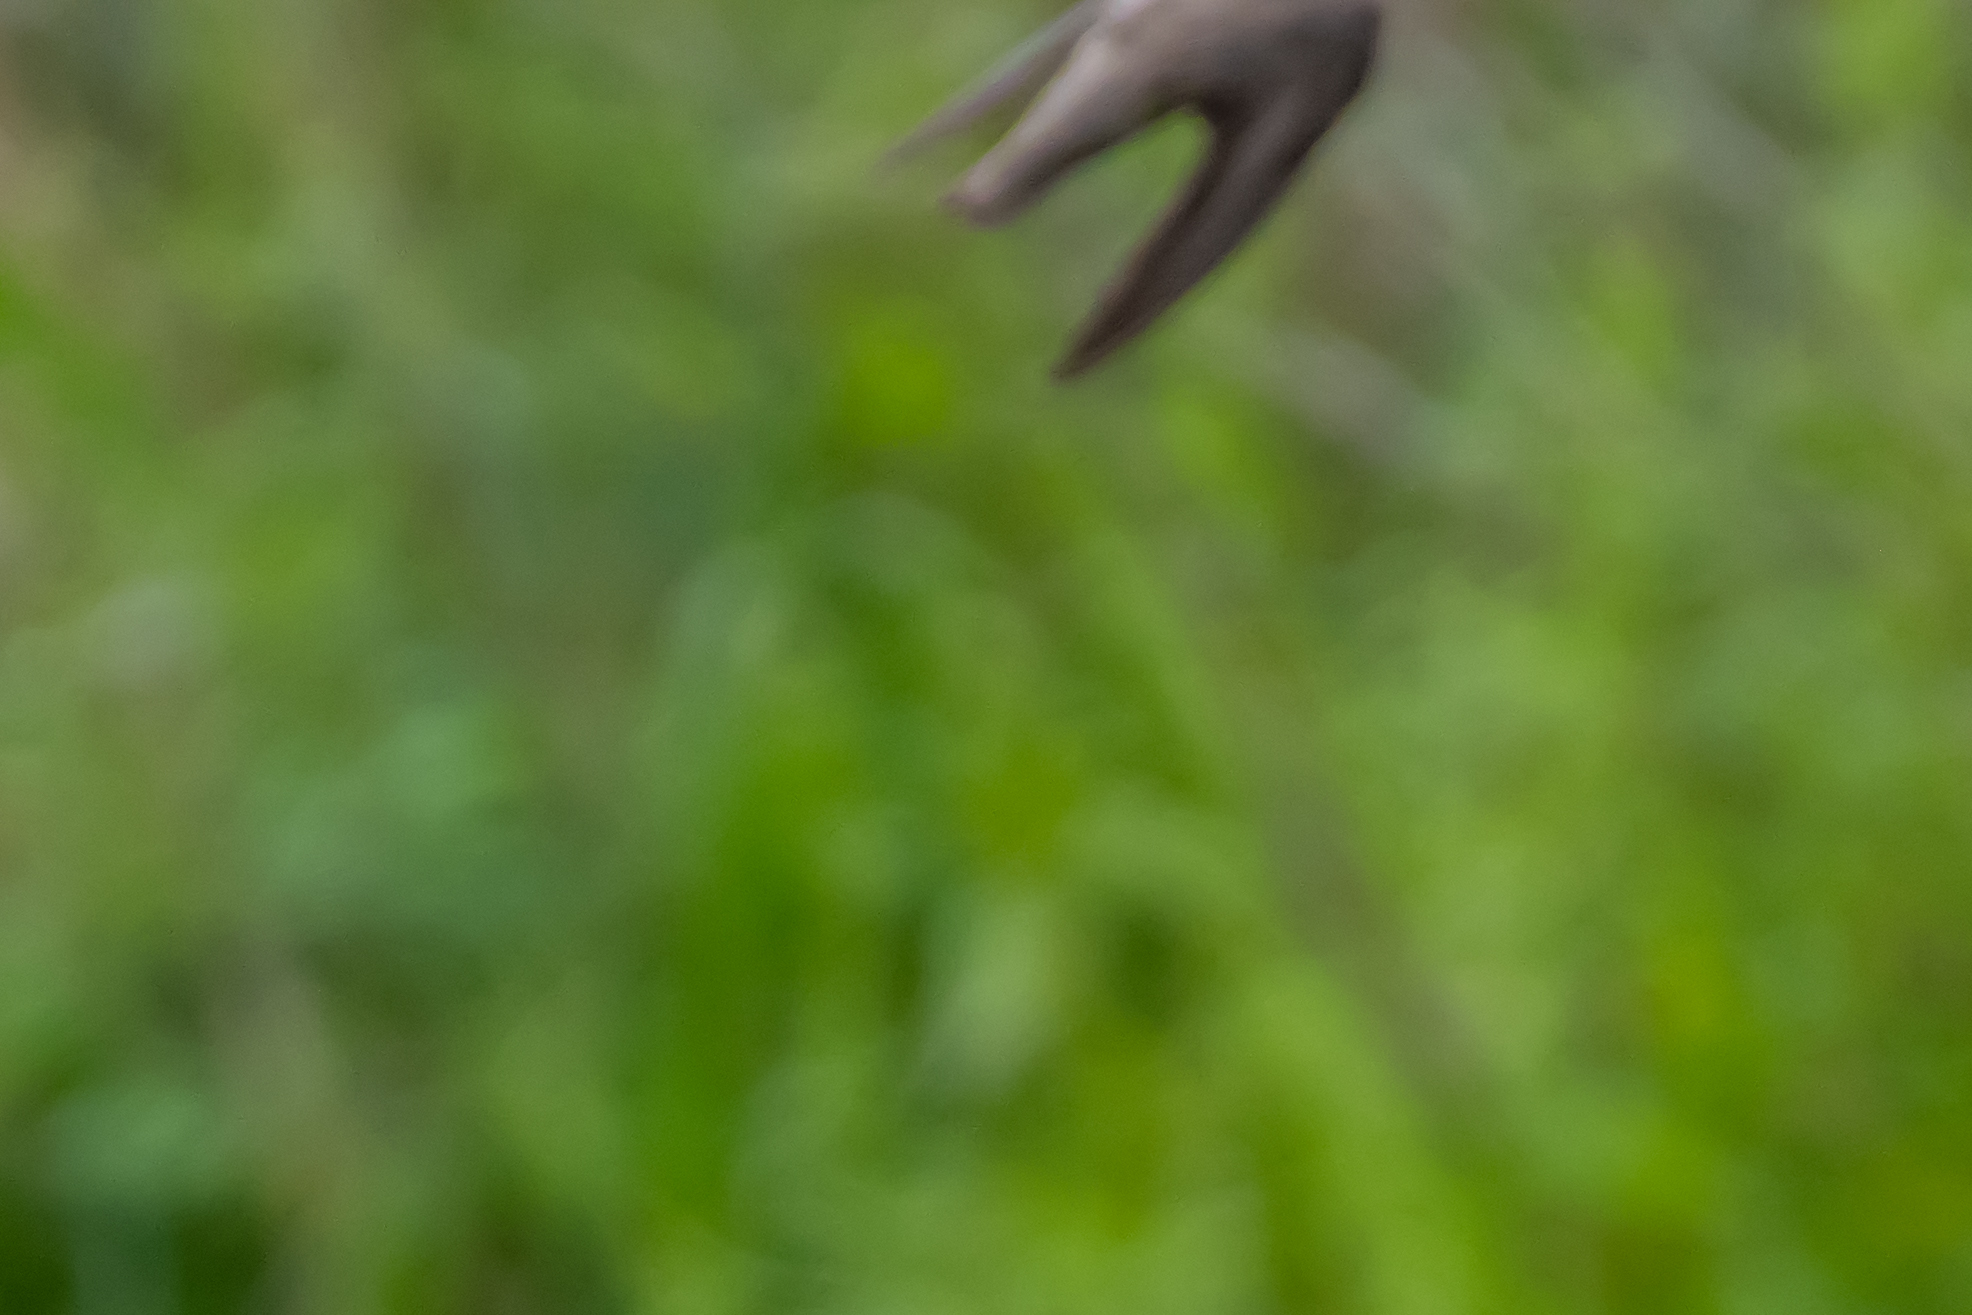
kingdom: Animalia
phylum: Chordata
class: Aves
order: Passeriformes
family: Hirundinidae
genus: Ptyonoprogne
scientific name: Ptyonoprogne rupestris
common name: Eurasian crag martin
